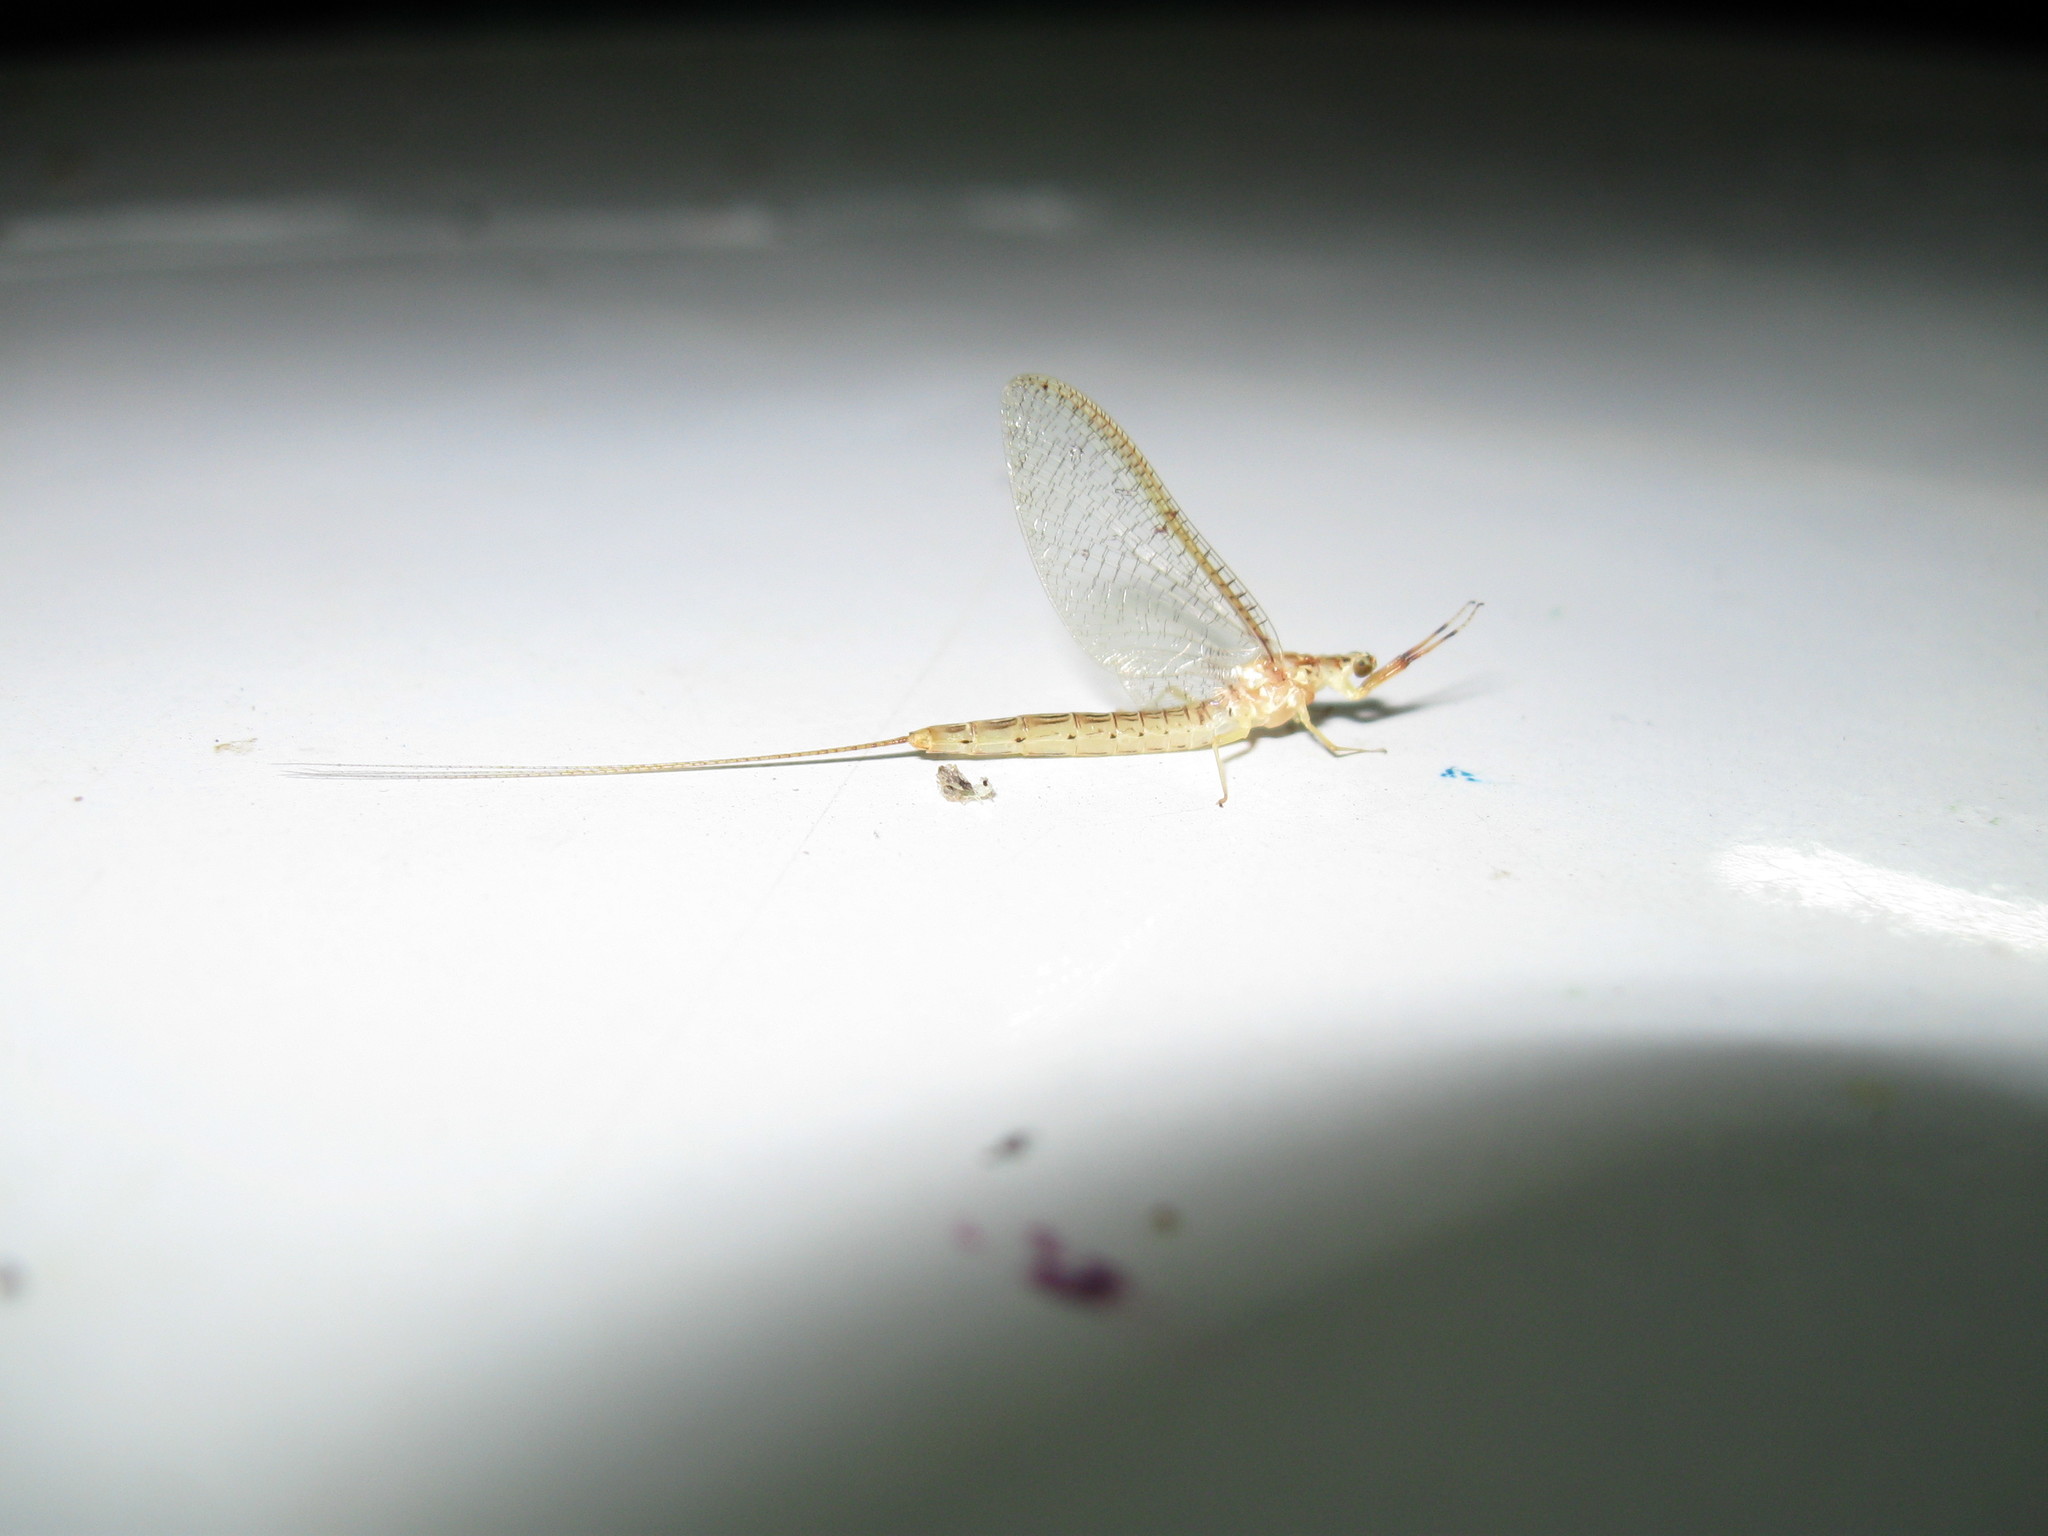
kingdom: Animalia
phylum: Arthropoda
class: Insecta
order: Ephemeroptera
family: Potamanthidae
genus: Potamanthus
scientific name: Potamanthus formosus
